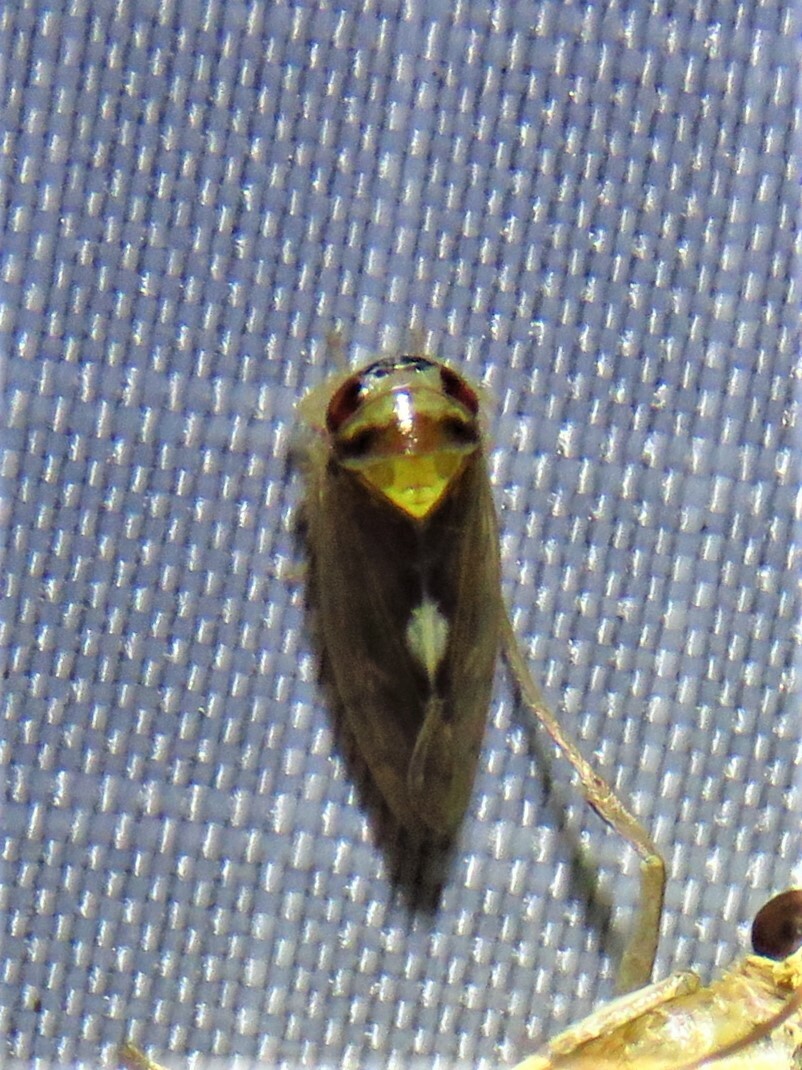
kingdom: Animalia
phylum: Arthropoda
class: Insecta
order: Hemiptera
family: Cicadellidae
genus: Eutettix
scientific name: Eutettix pictus
